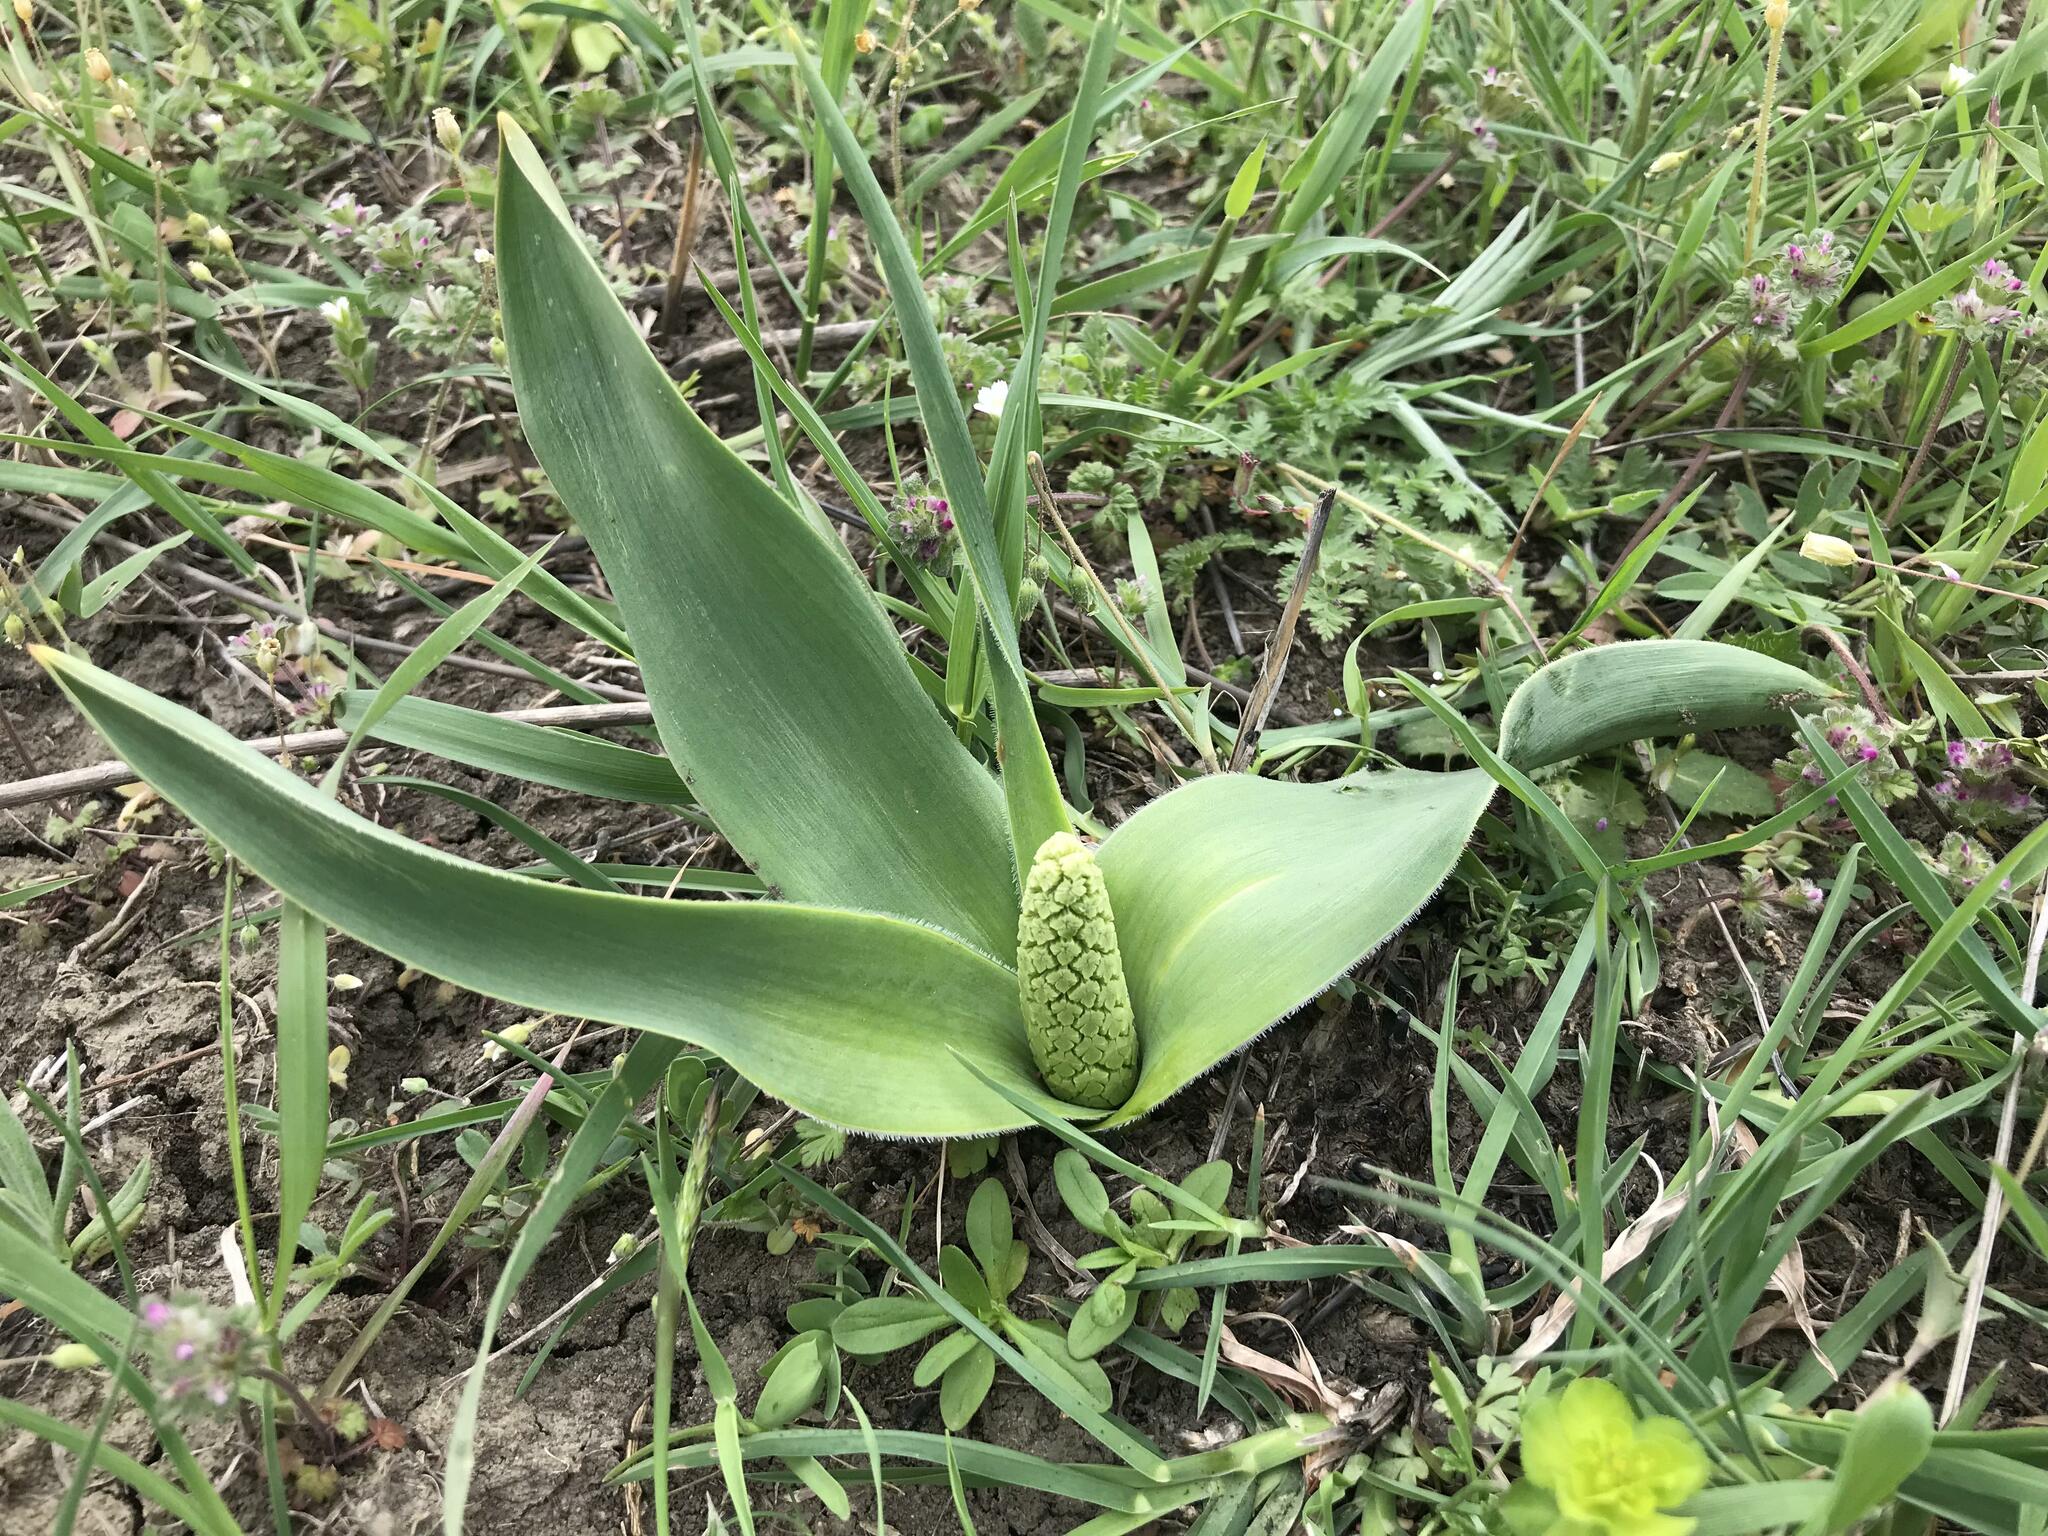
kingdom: Plantae
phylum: Tracheophyta
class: Liliopsida
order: Asparagales
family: Asparagaceae
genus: Bellevalia
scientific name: Bellevalia speciosa
